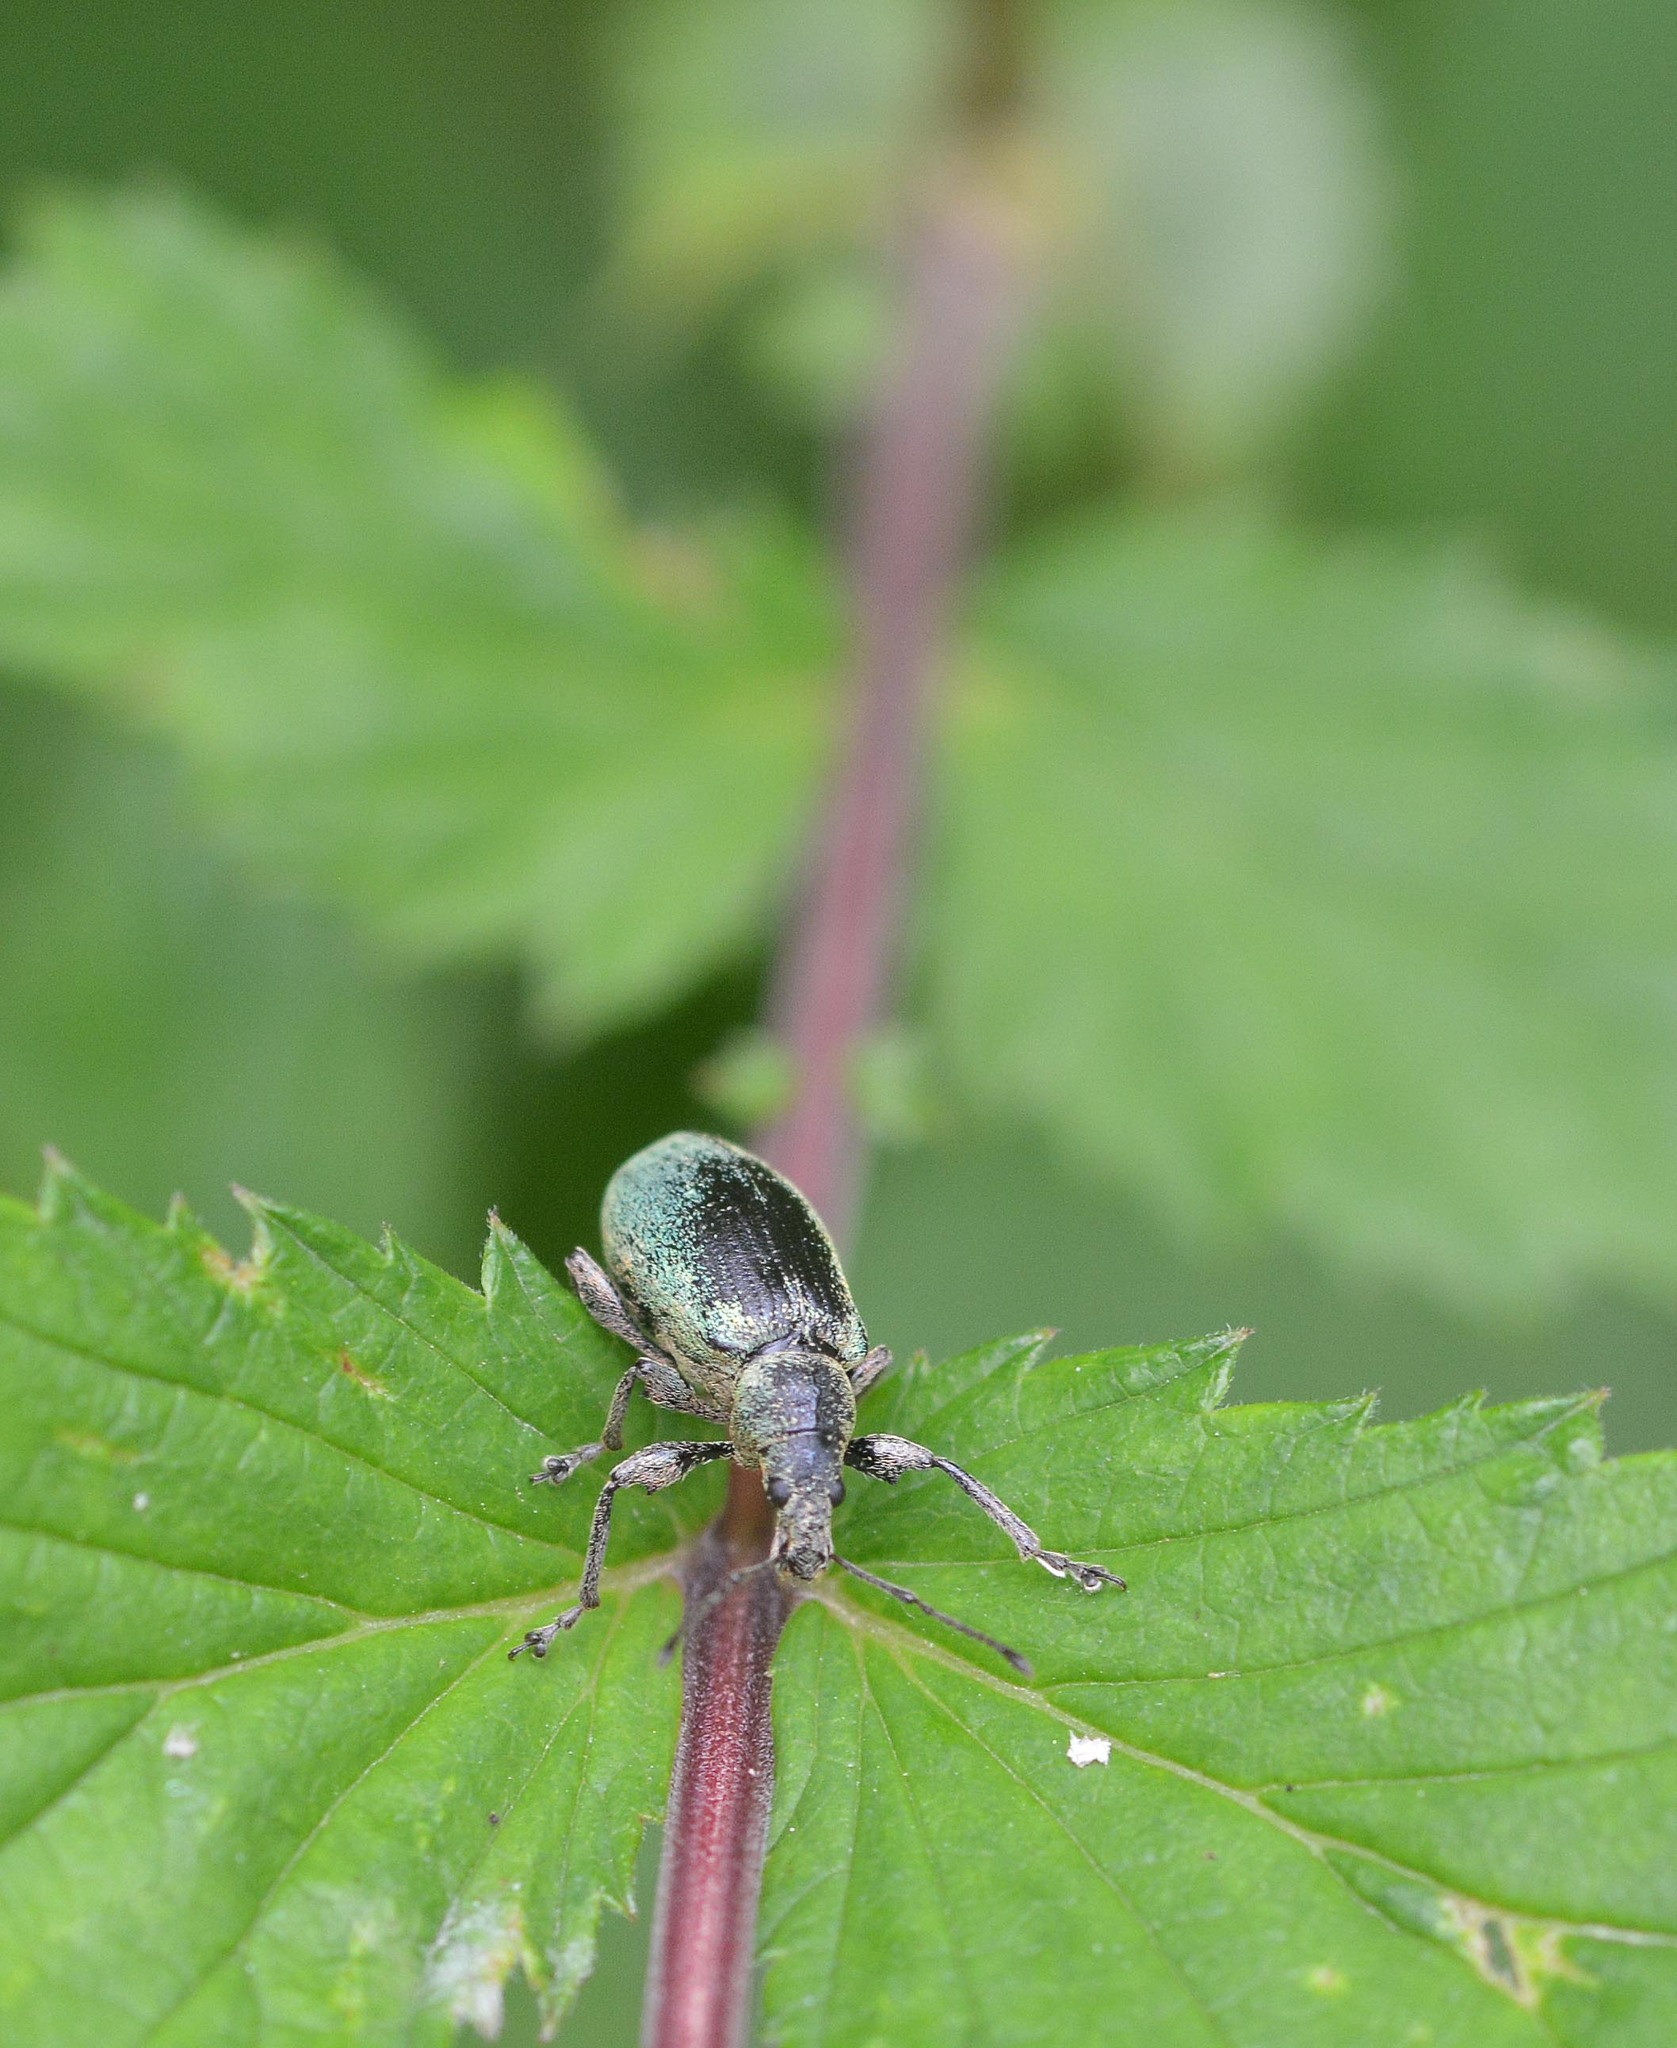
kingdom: Animalia
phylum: Arthropoda
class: Insecta
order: Coleoptera
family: Curculionidae
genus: Phyllobius
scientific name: Phyllobius pomaceus
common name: Green nettle weevil
